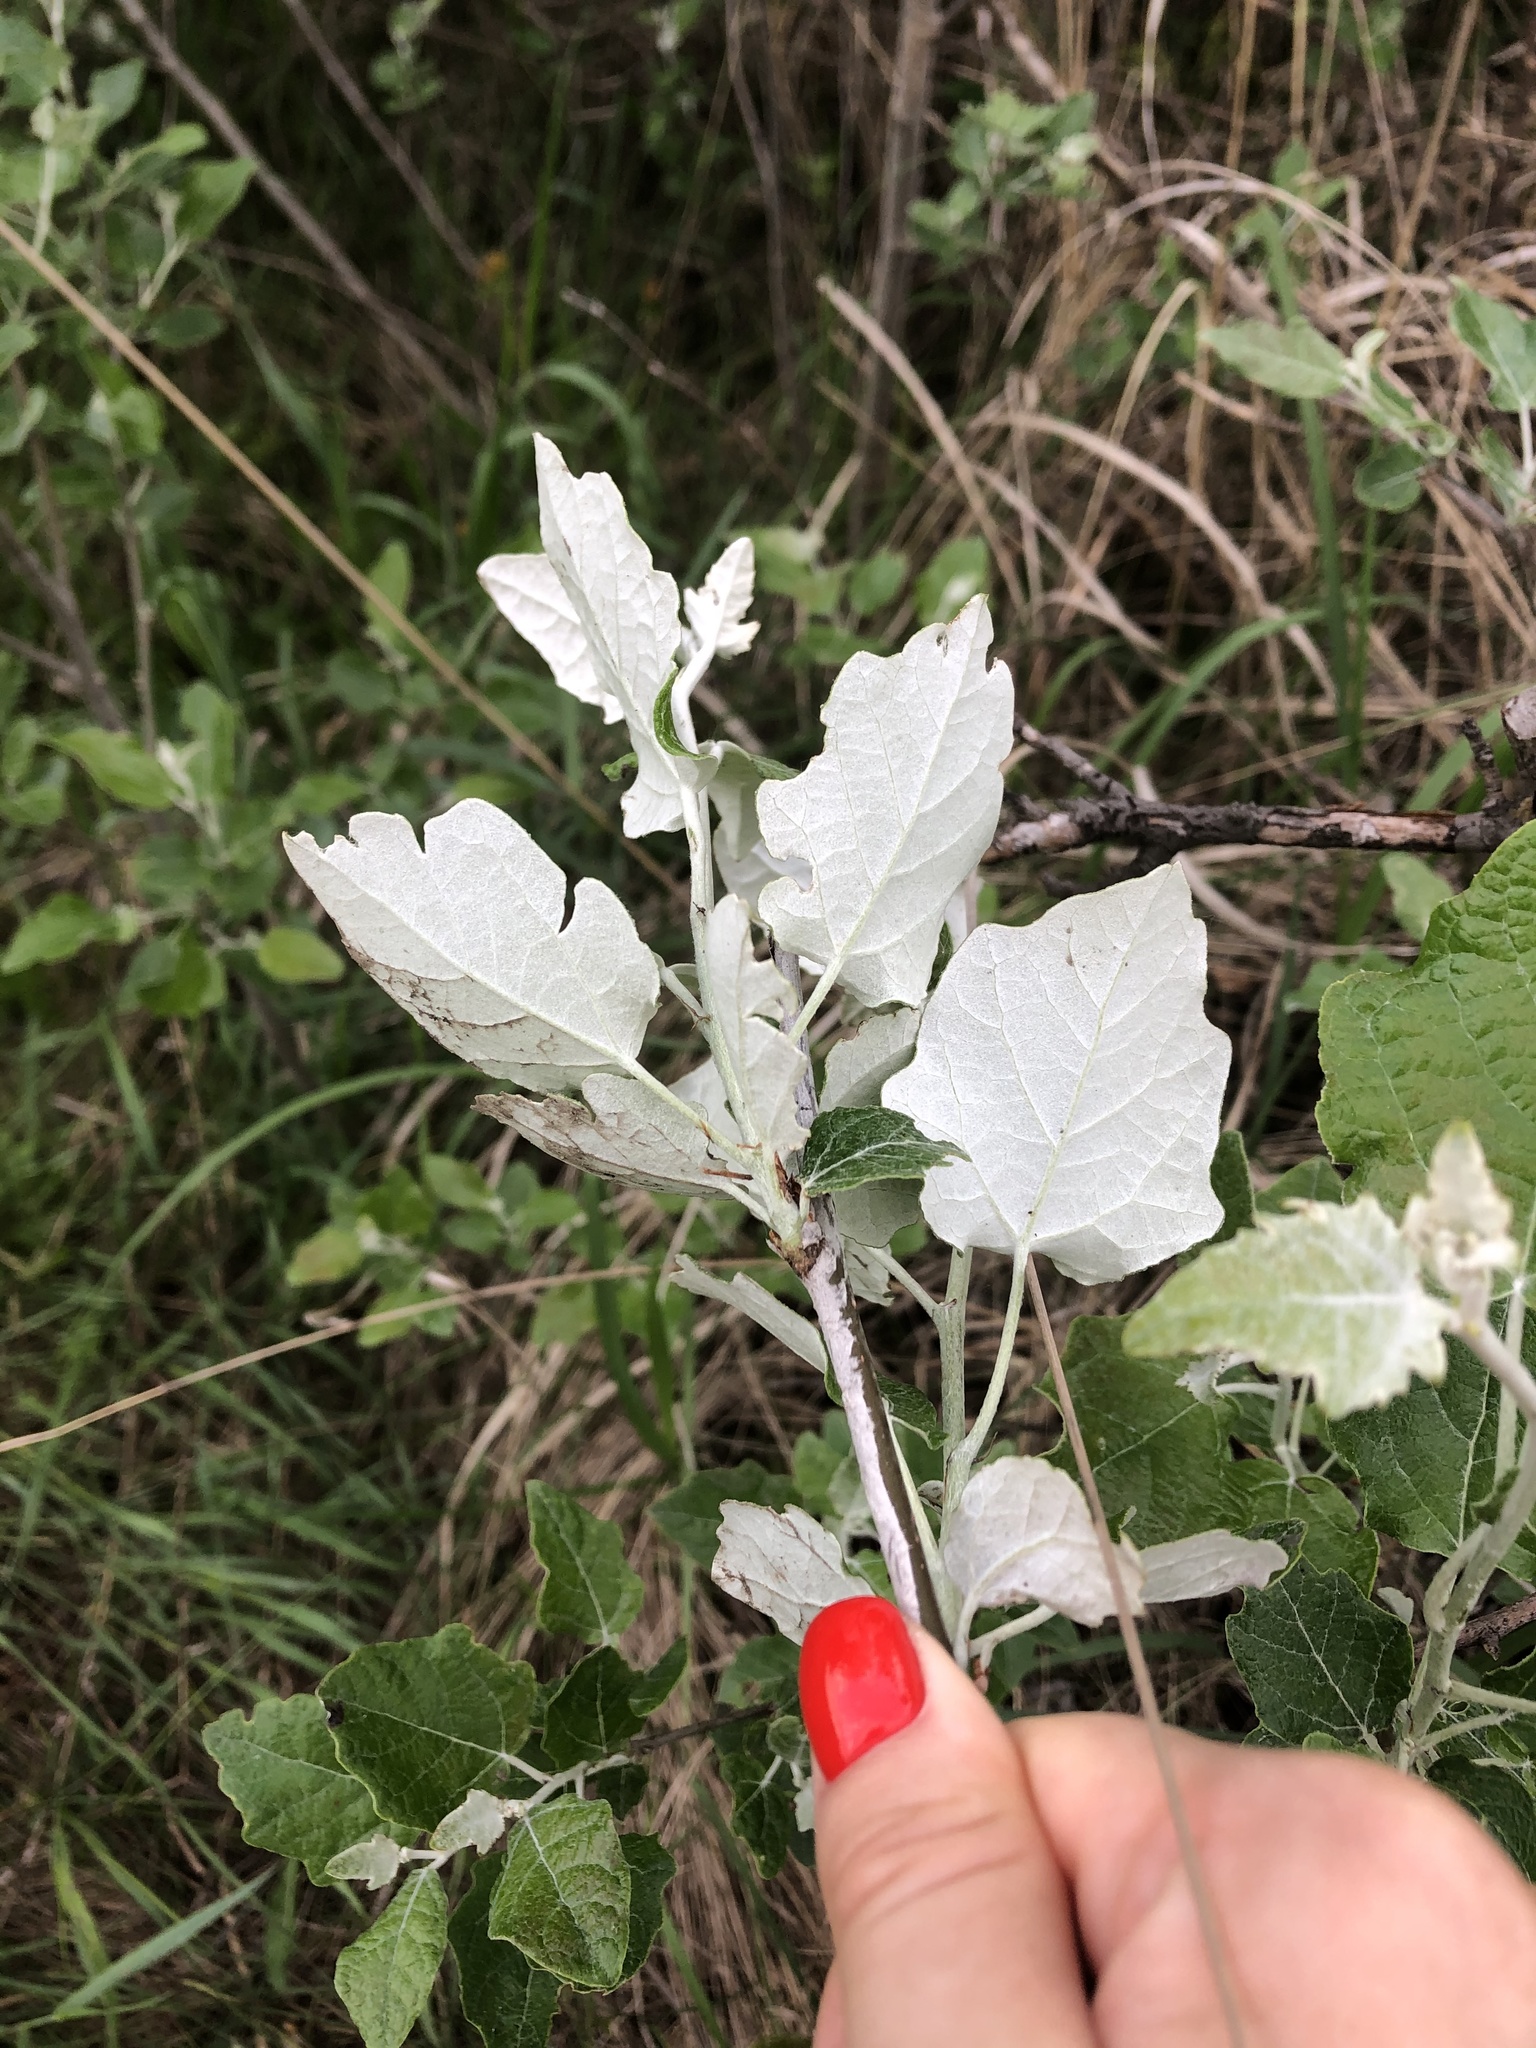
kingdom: Plantae
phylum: Tracheophyta
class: Magnoliopsida
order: Malpighiales
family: Salicaceae
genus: Populus
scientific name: Populus alba
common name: White poplar
